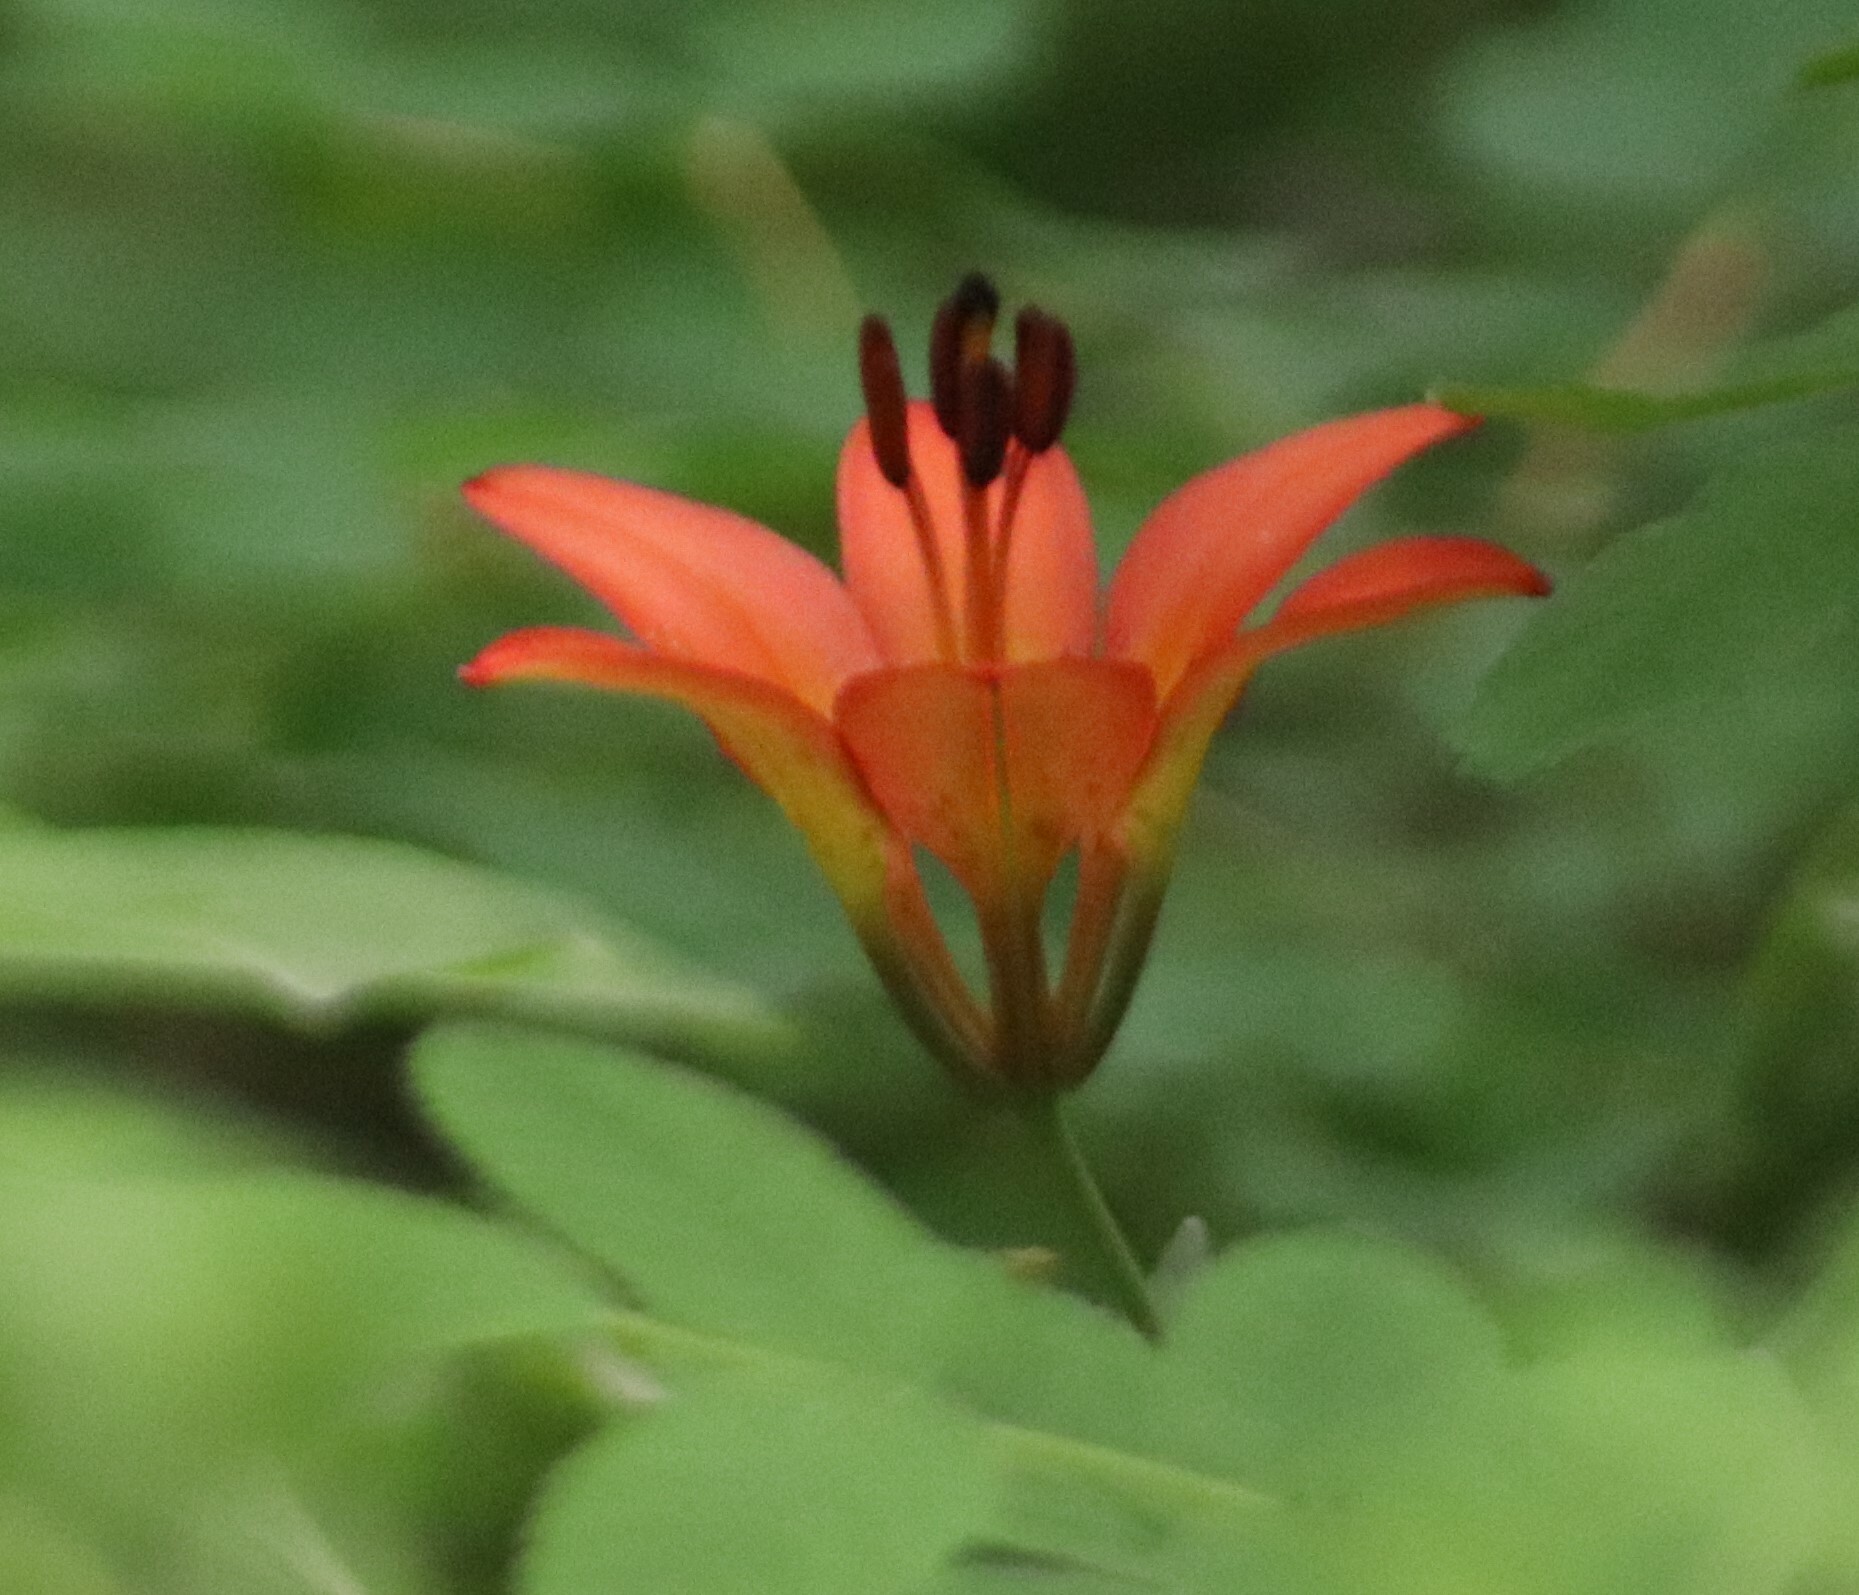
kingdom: Plantae
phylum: Tracheophyta
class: Liliopsida
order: Liliales
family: Liliaceae
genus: Lilium
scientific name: Lilium philadelphicum
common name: Red lily
